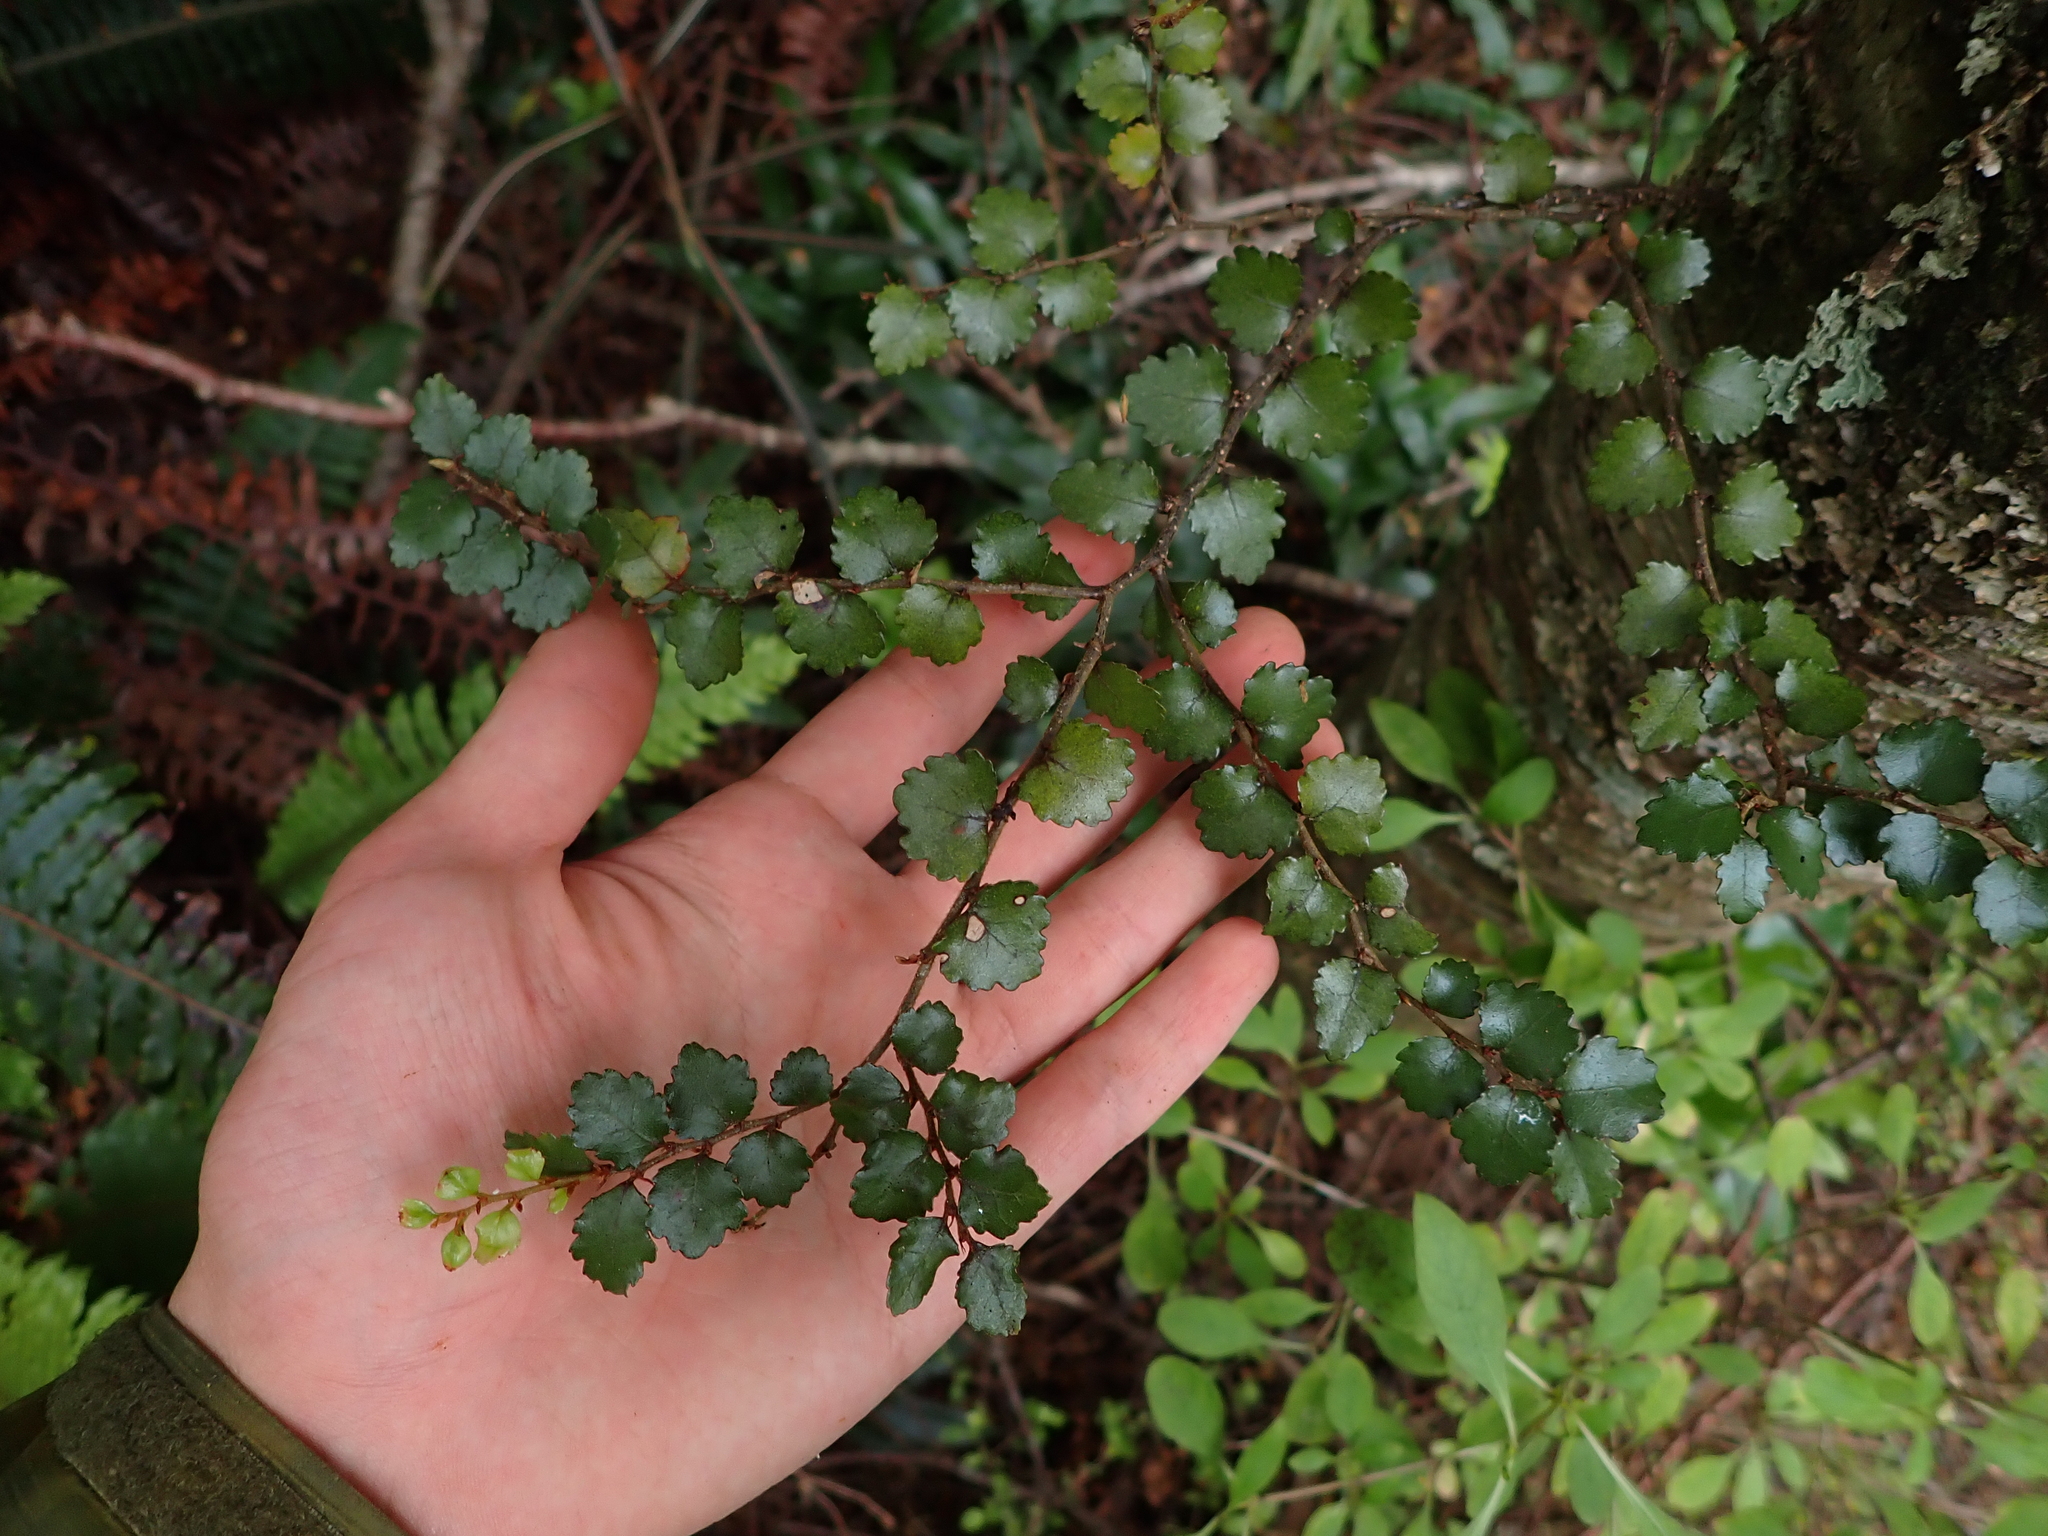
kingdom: Plantae
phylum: Tracheophyta
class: Magnoliopsida
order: Fagales
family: Nothofagaceae
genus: Nothofagus
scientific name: Nothofagus menziesii
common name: Silver beech
